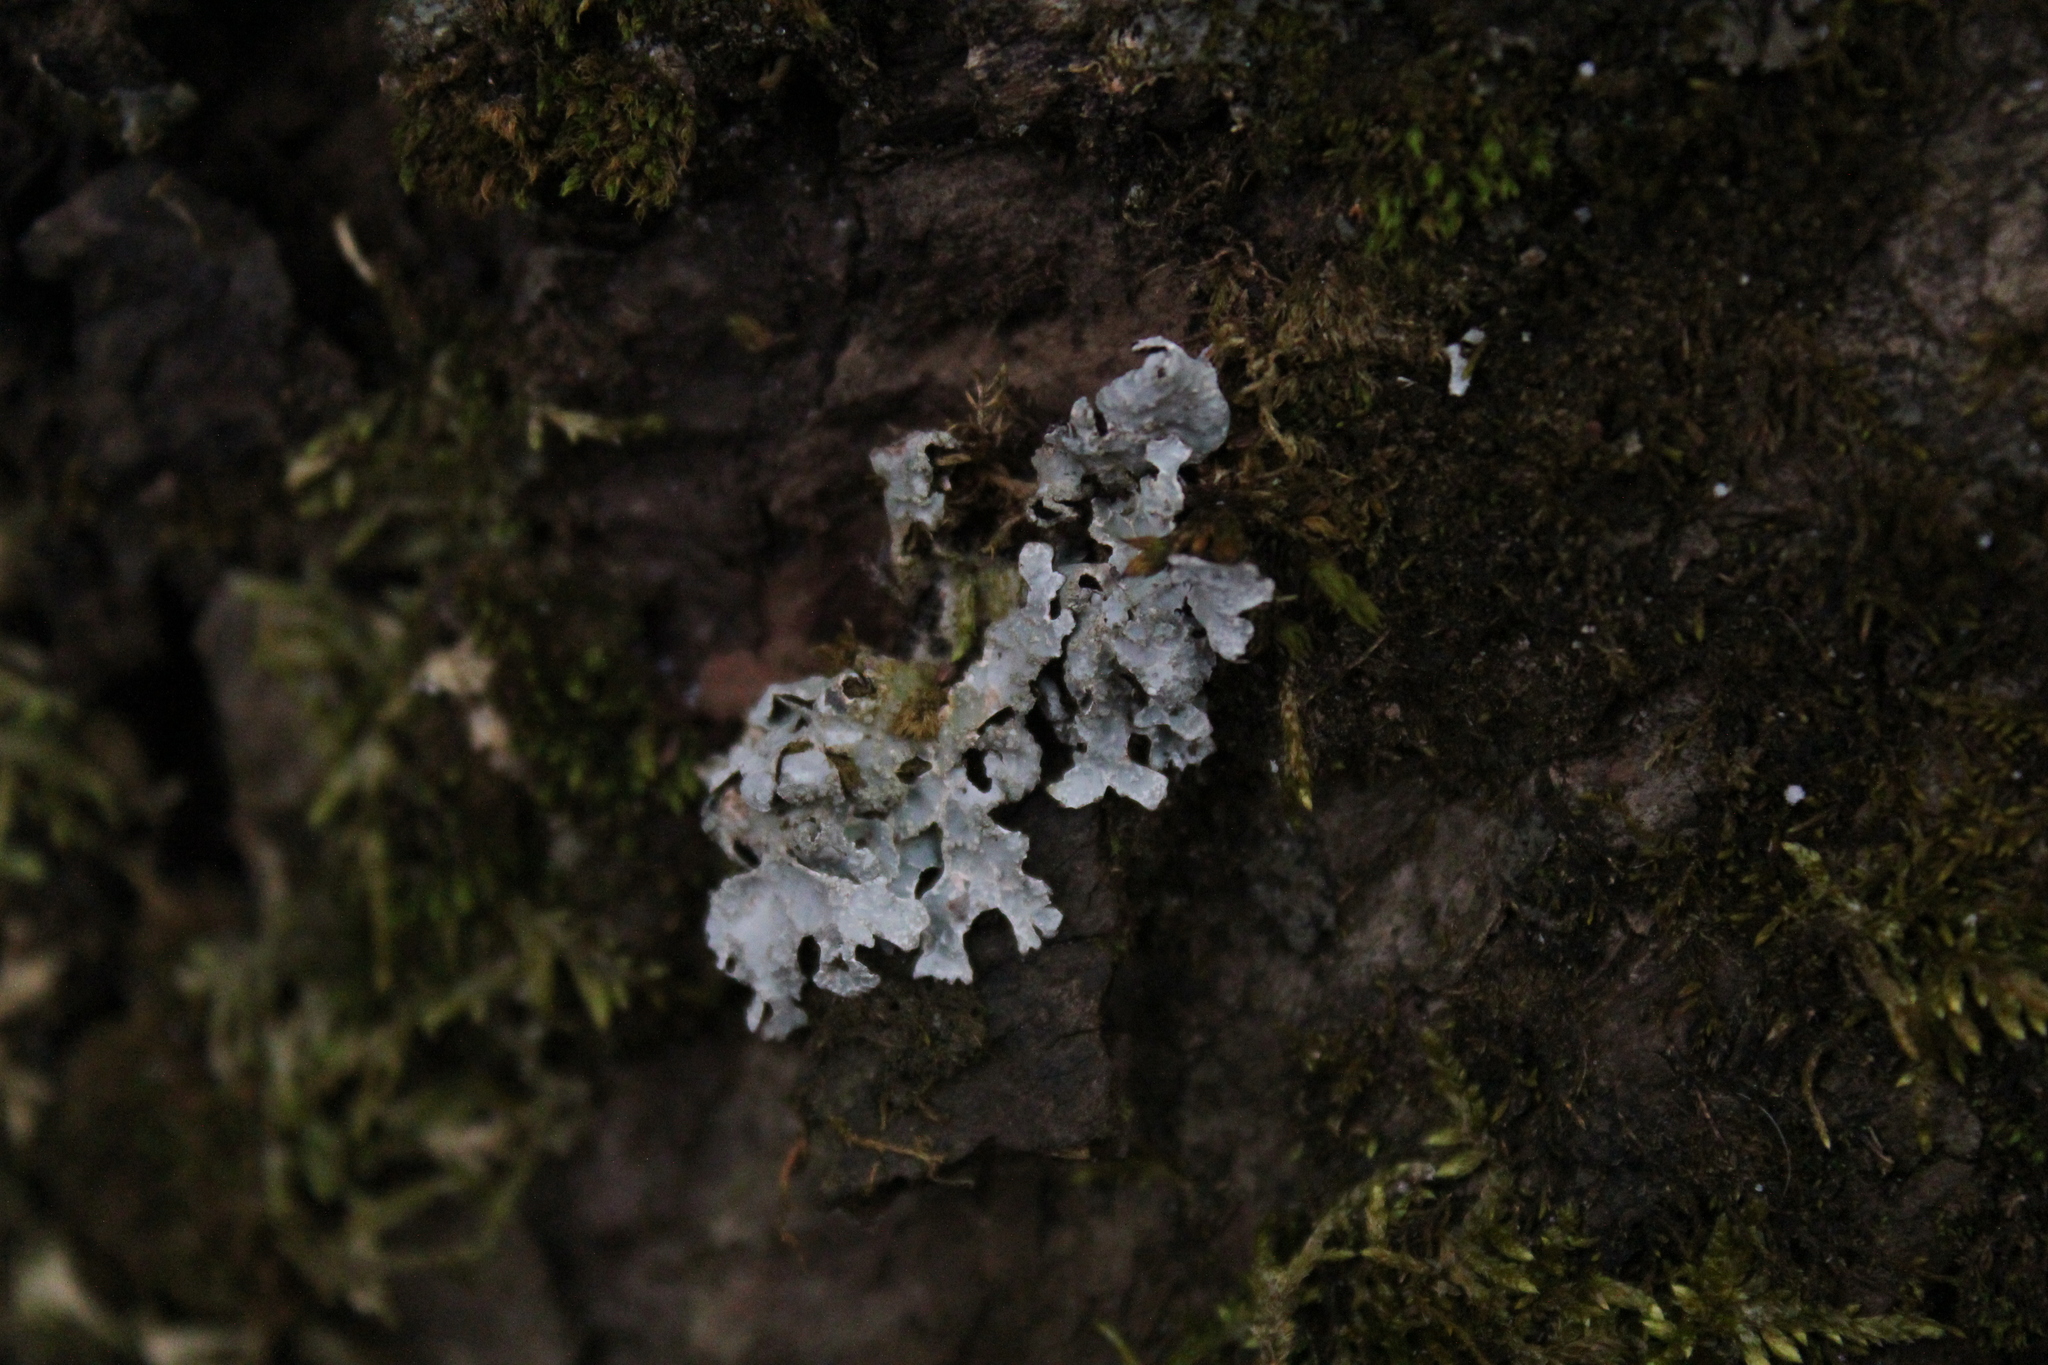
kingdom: Fungi
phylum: Ascomycota
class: Lecanoromycetes
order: Lecanorales
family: Parmeliaceae
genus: Parmelia
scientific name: Parmelia sulcata
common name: Netted shield lichen
